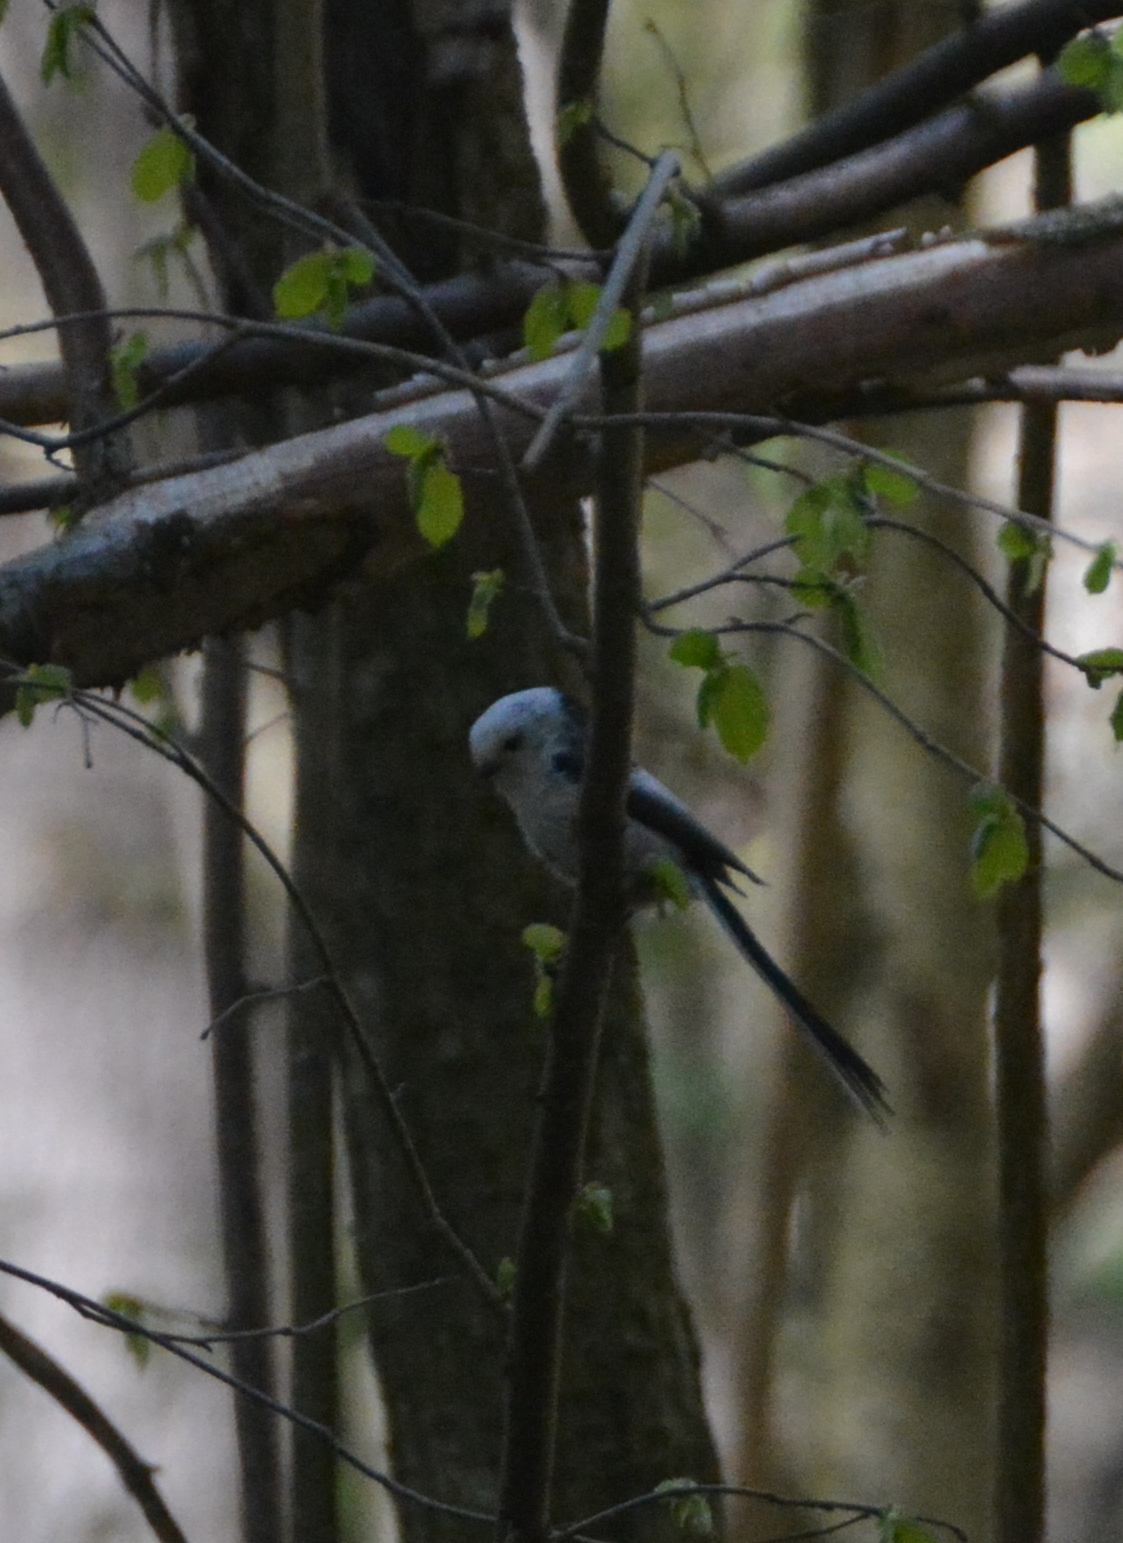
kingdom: Animalia
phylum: Chordata
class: Aves
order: Passeriformes
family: Aegithalidae
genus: Aegithalos
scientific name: Aegithalos caudatus
